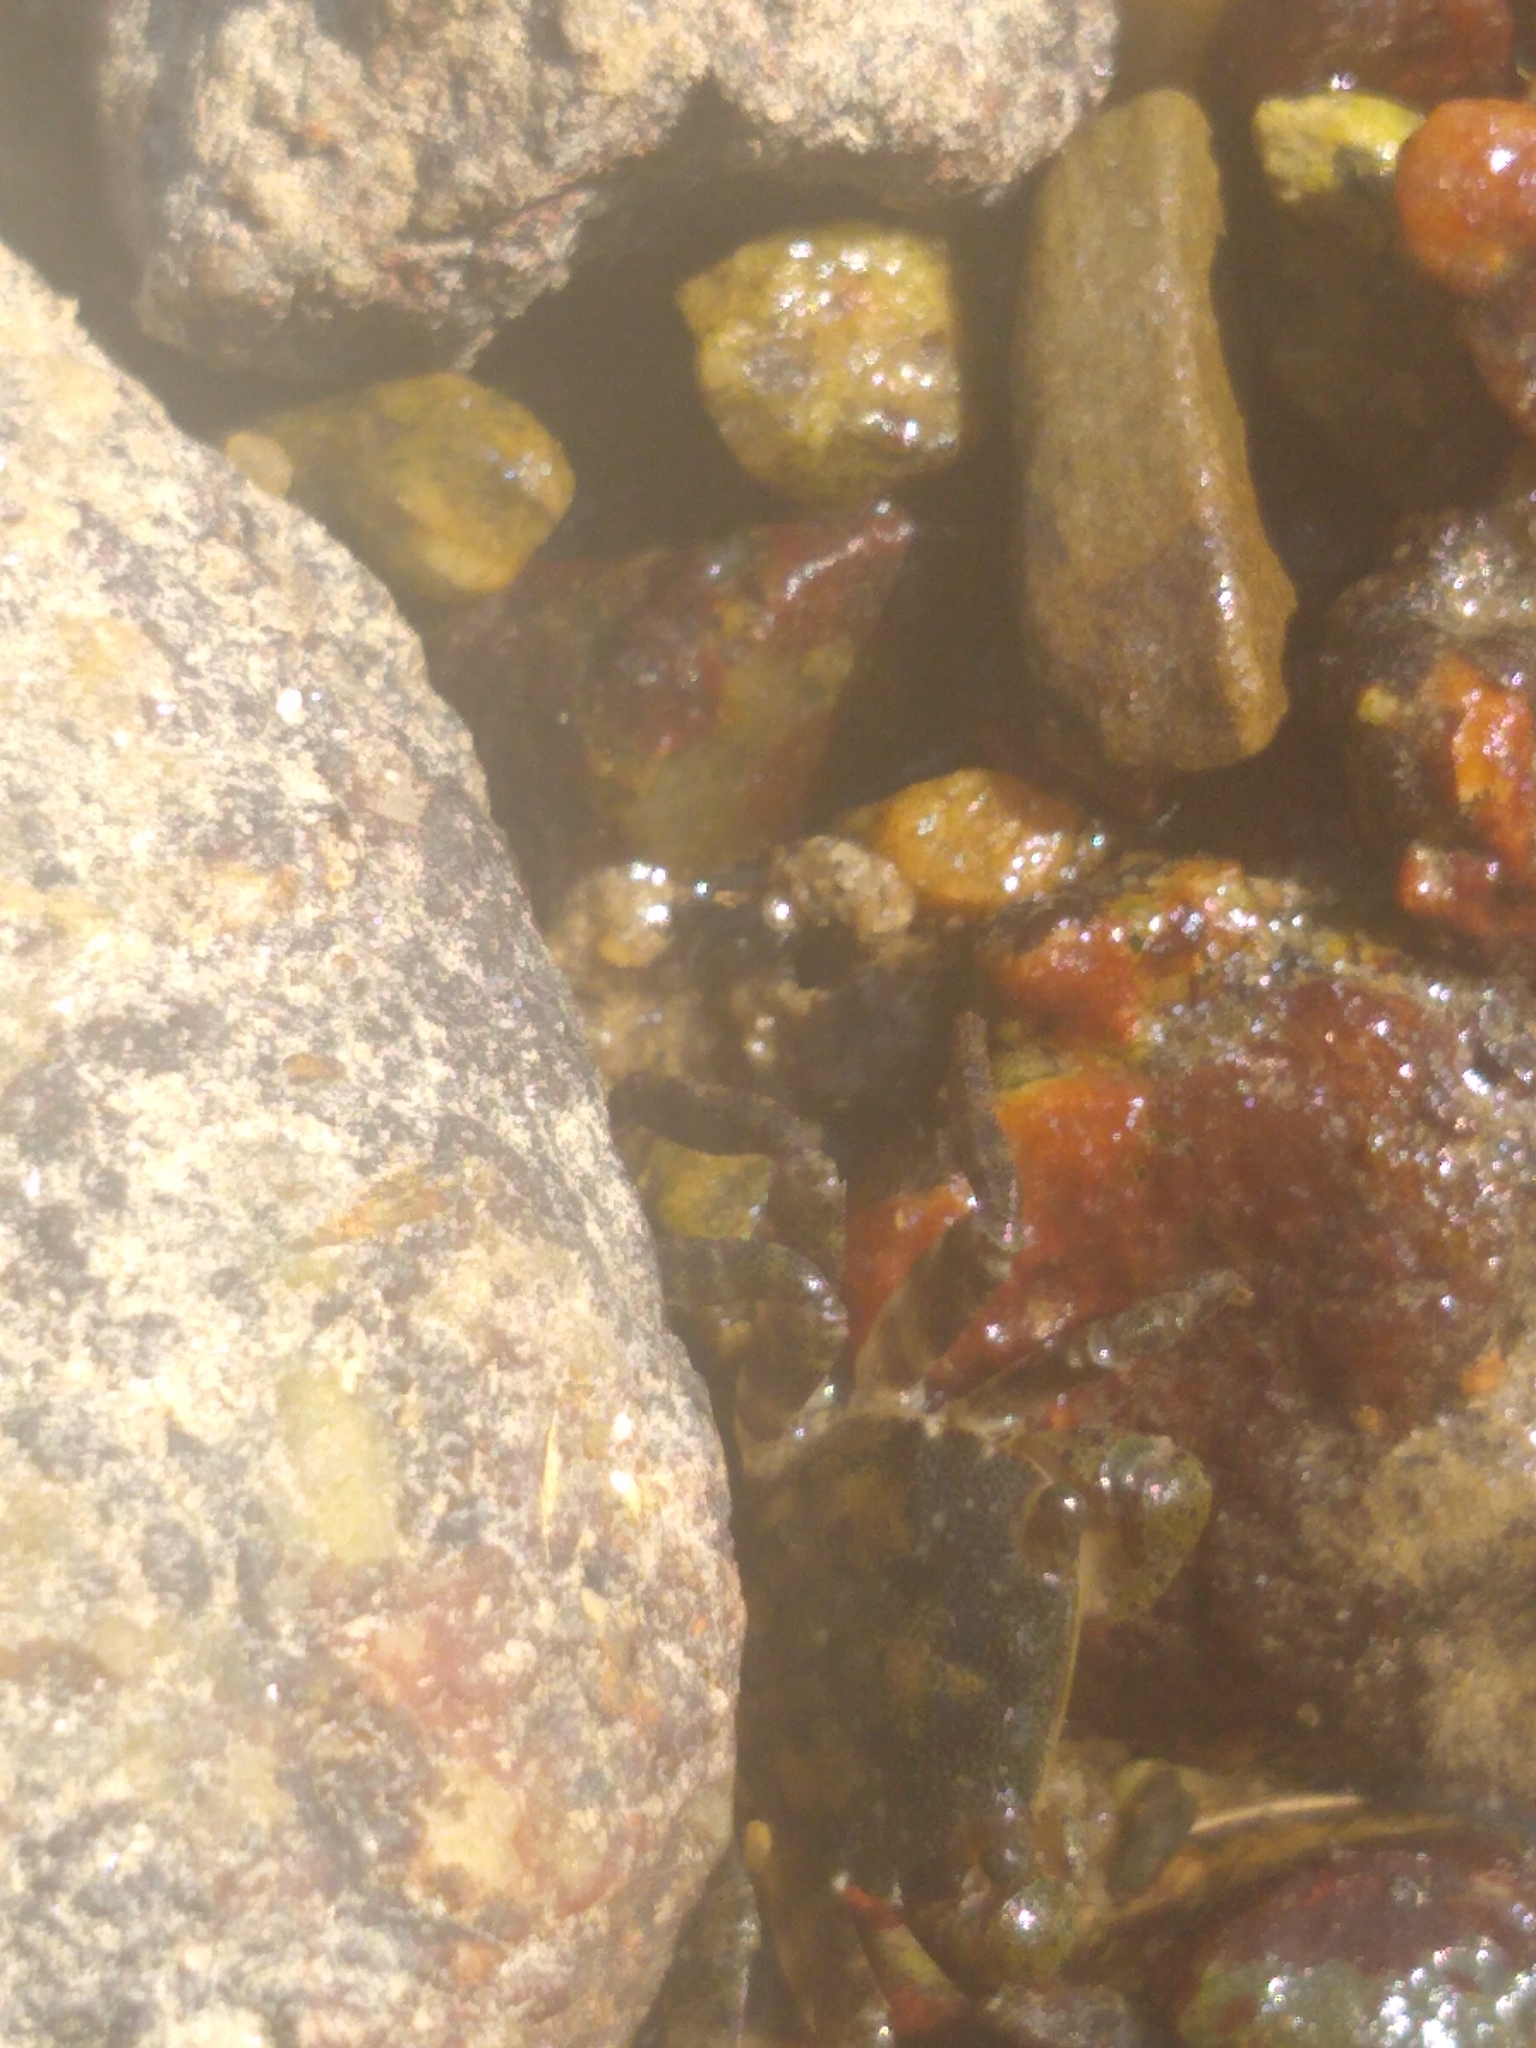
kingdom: Animalia
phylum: Arthropoda
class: Malacostraca
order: Decapoda
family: Varunidae
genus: Hemigrapsus
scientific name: Hemigrapsus sanguineus
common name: Asian shore crab
